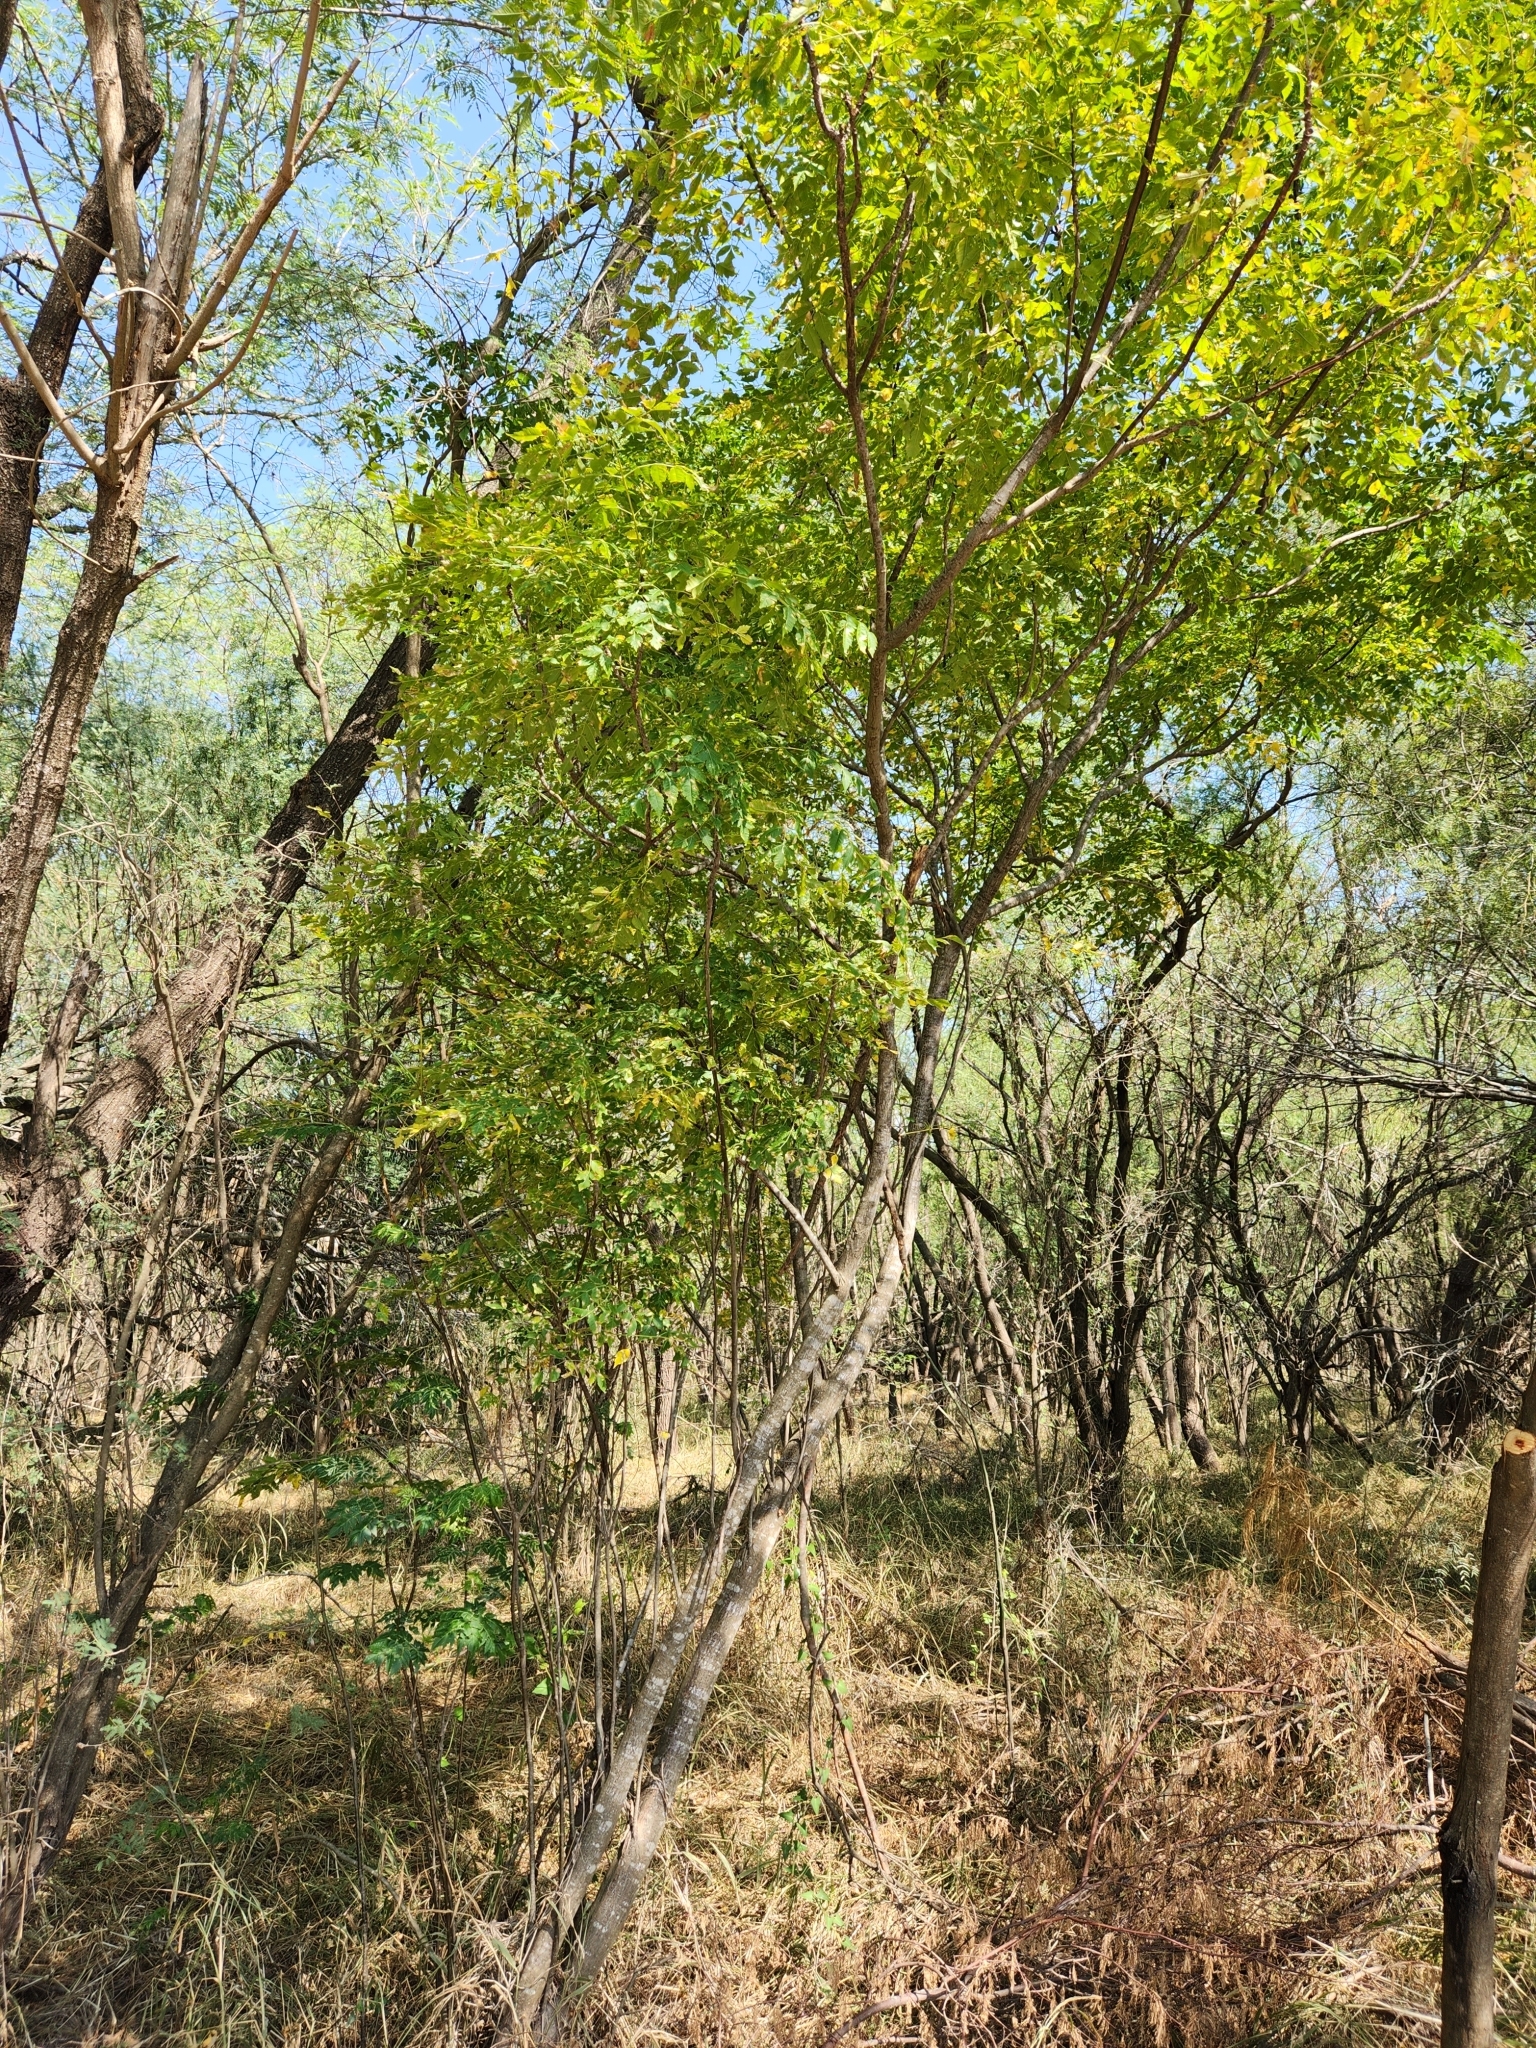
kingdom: Plantae
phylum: Tracheophyta
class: Magnoliopsida
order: Sapindales
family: Meliaceae
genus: Melia
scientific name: Melia azedarach
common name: Chinaberrytree
